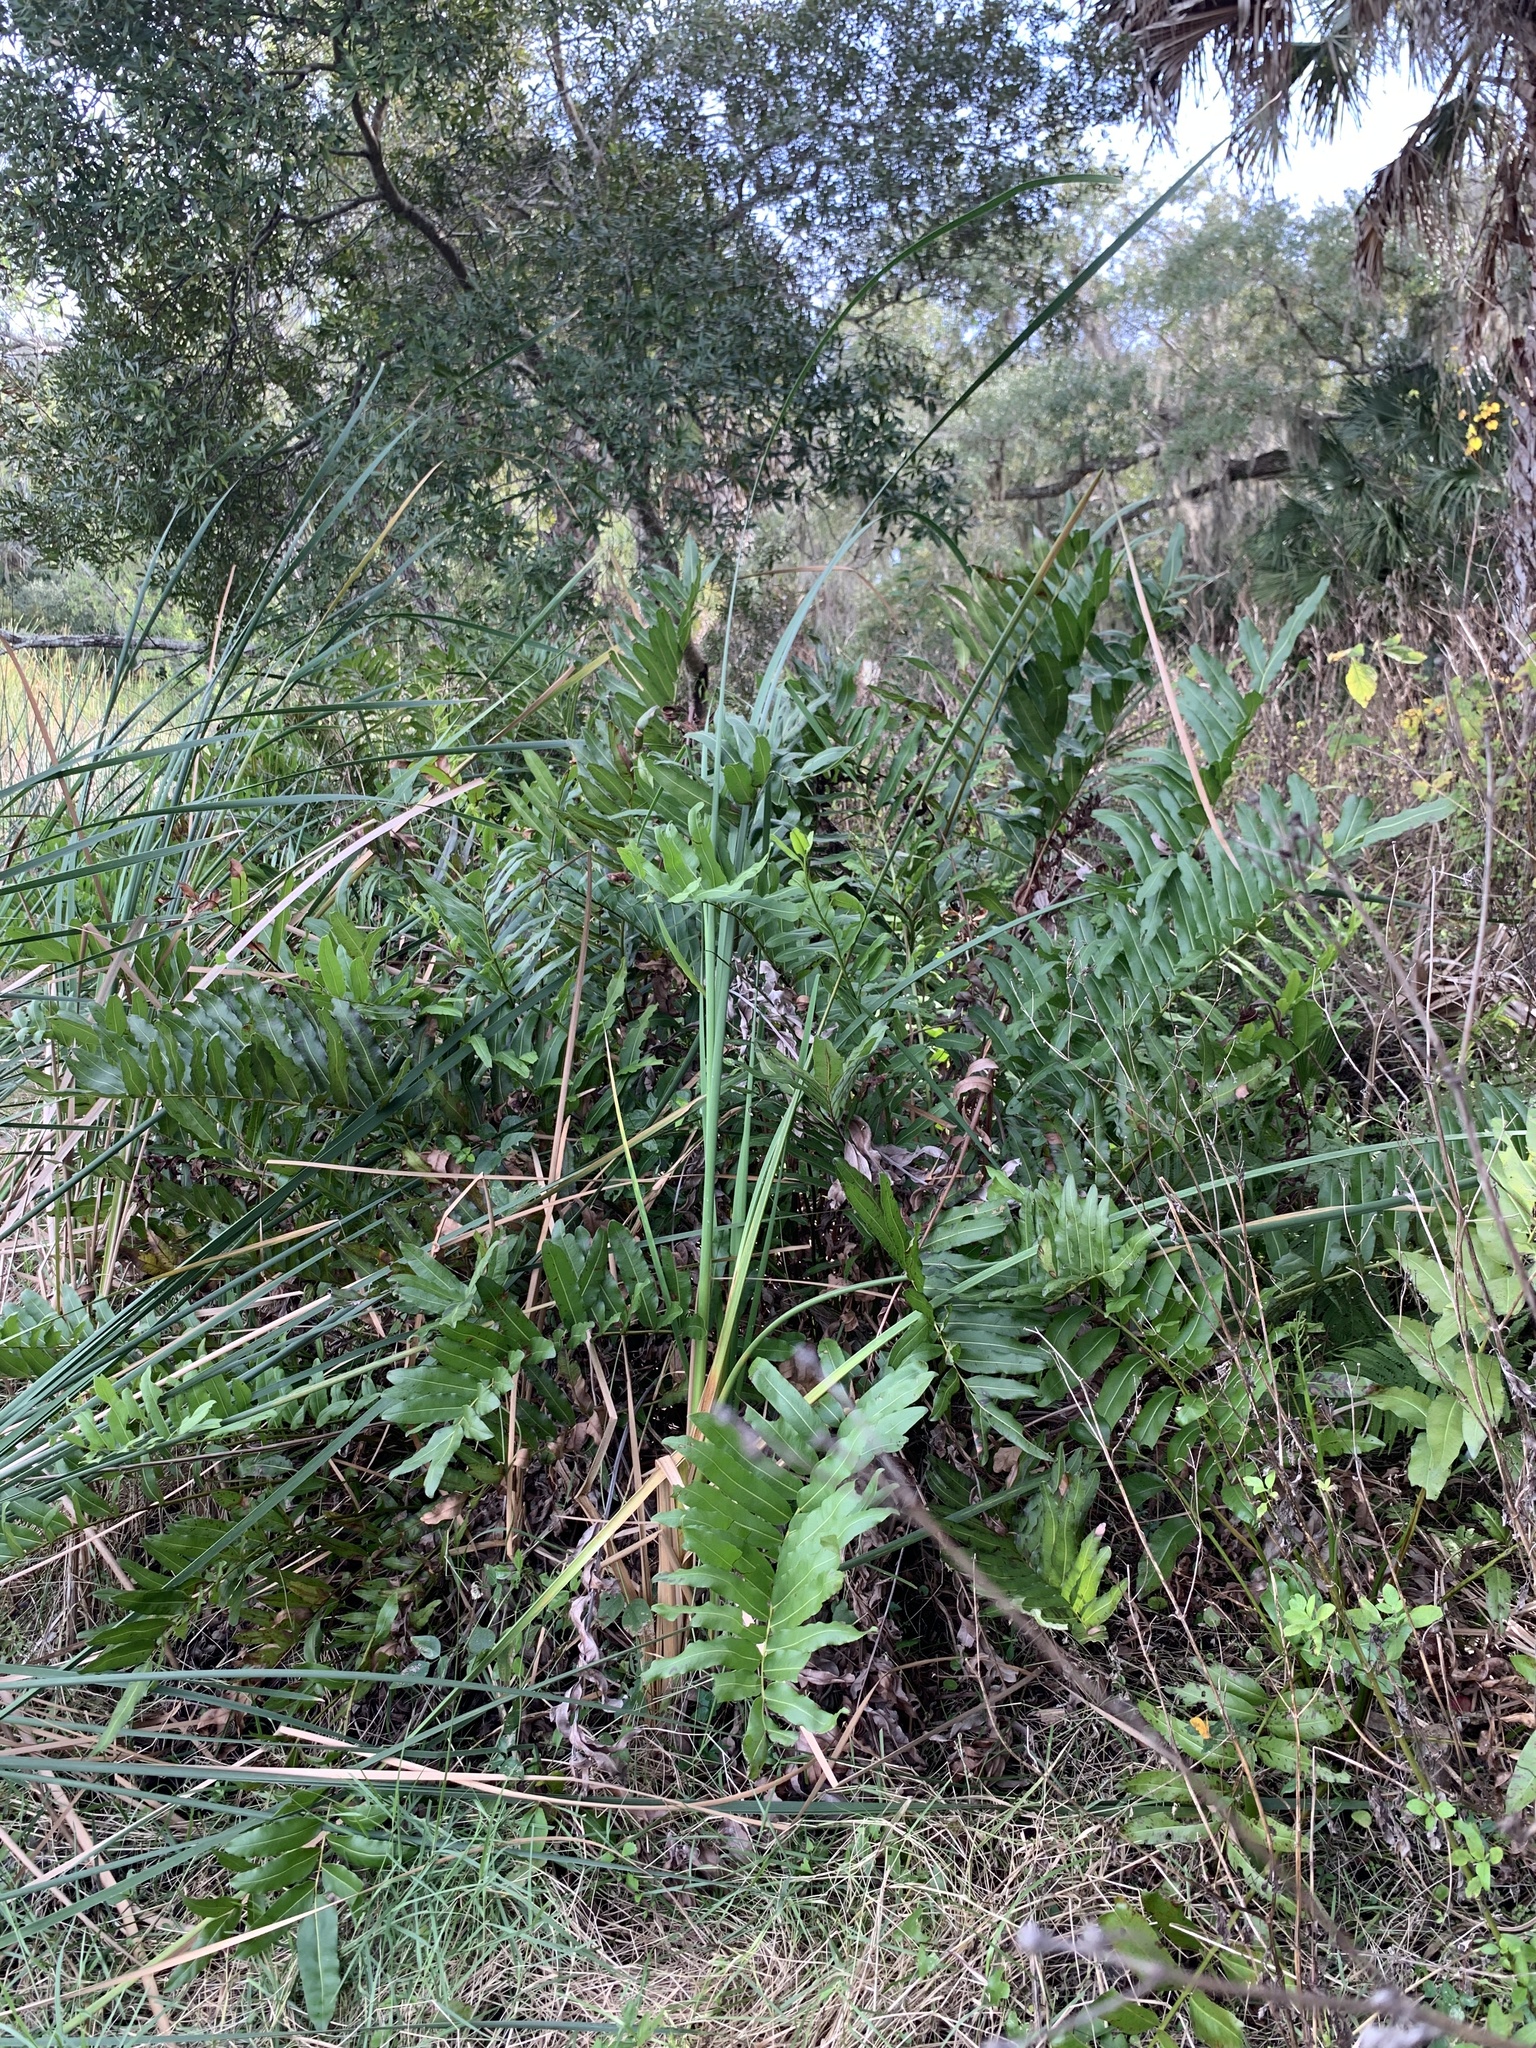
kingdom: Plantae
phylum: Tracheophyta
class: Polypodiopsida
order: Polypodiales
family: Pteridaceae
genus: Acrostichum
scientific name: Acrostichum danaeifolium
